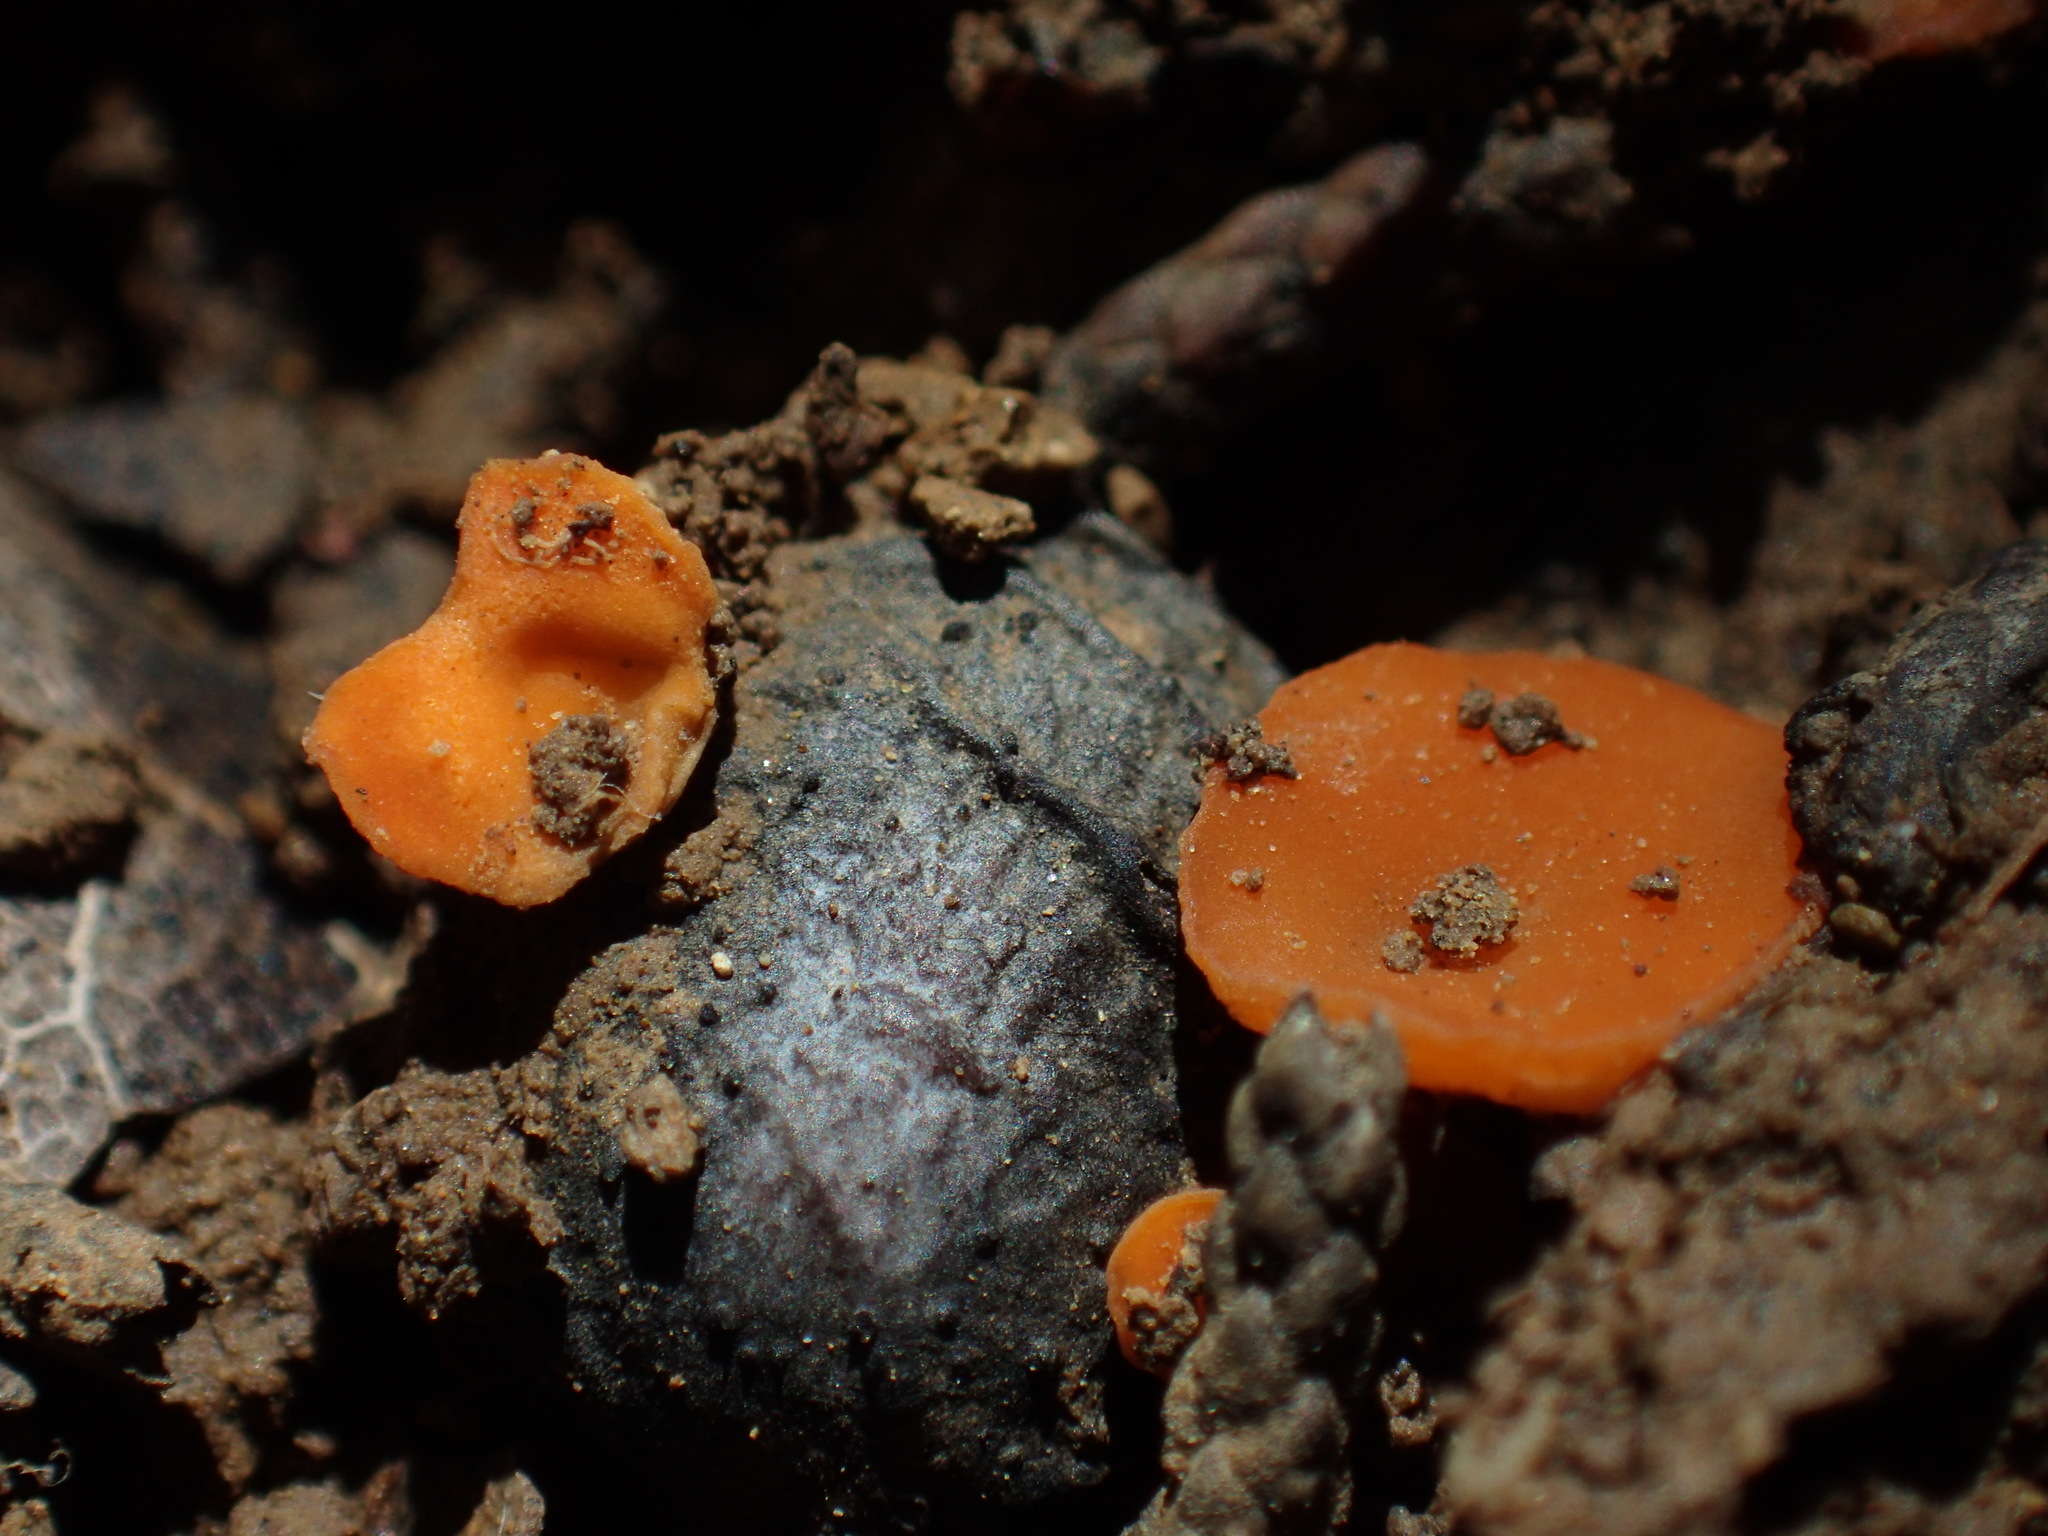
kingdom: Fungi
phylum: Ascomycota
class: Pezizomycetes
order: Pezizales
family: Sarcoscyphaceae
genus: Pithya
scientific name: Pithya cupressina
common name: Juniper disco
